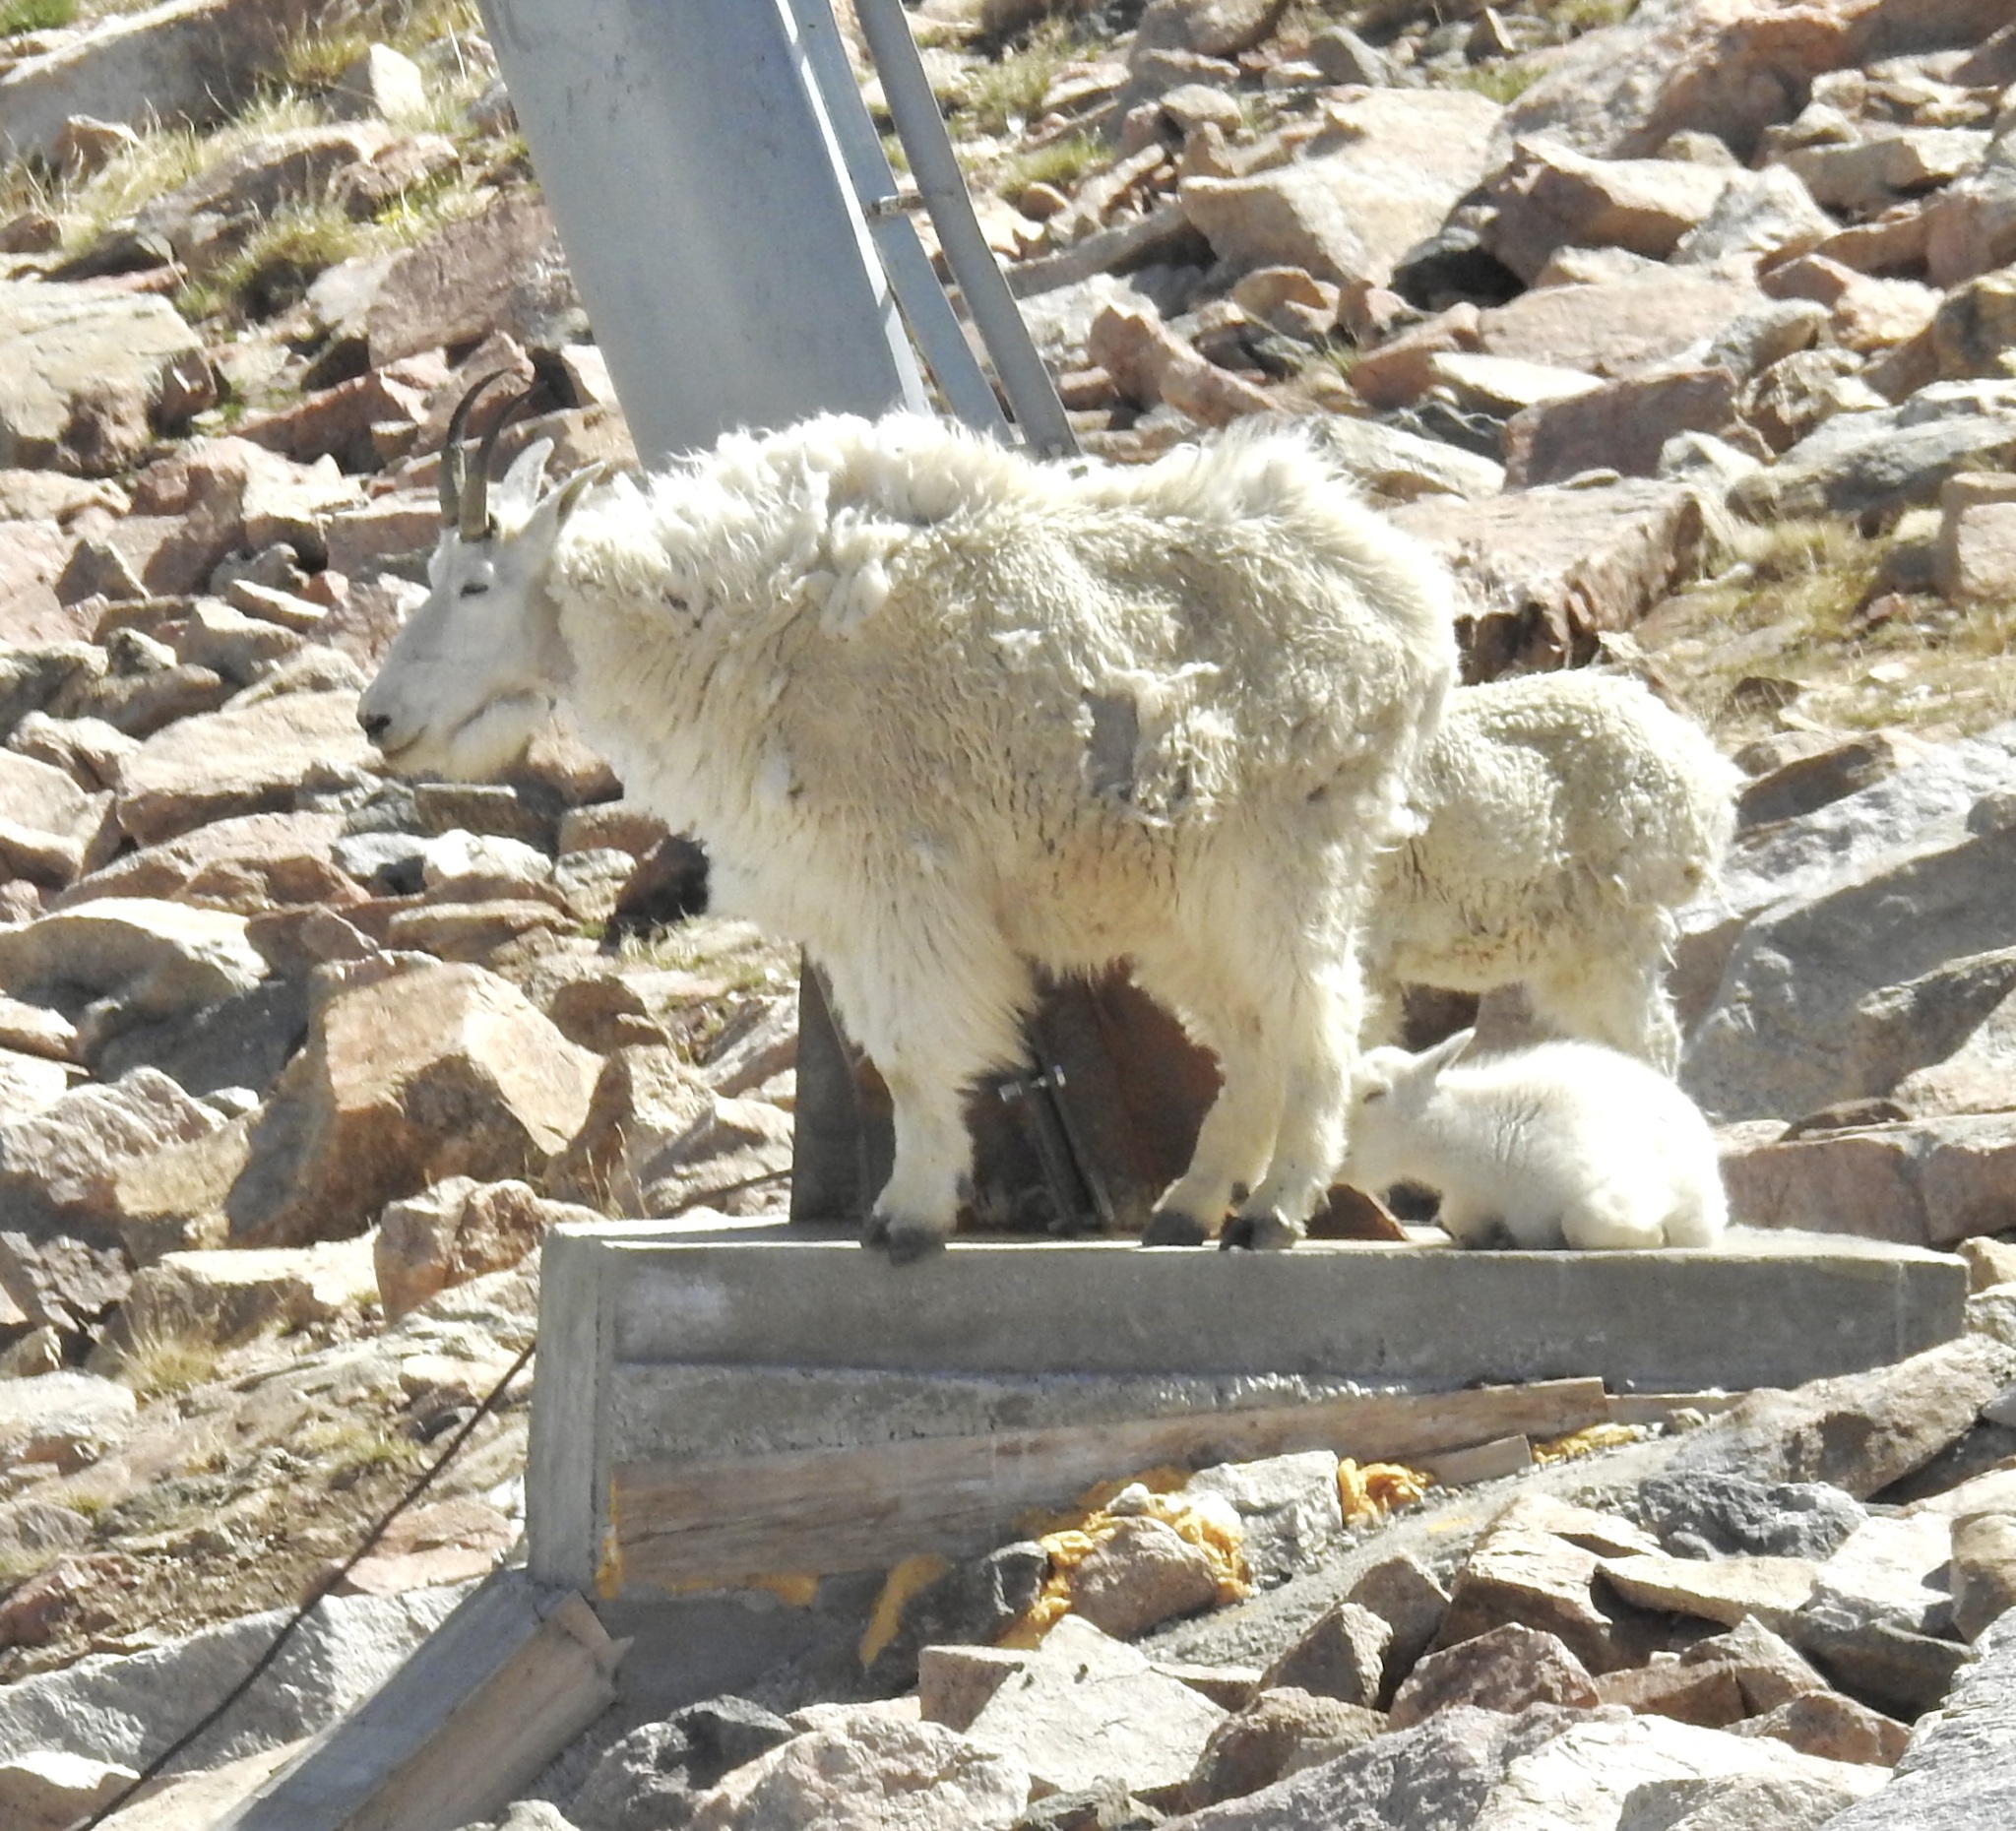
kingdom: Animalia
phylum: Chordata
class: Mammalia
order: Artiodactyla
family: Bovidae
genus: Oreamnos
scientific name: Oreamnos americanus
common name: Mountain goat
